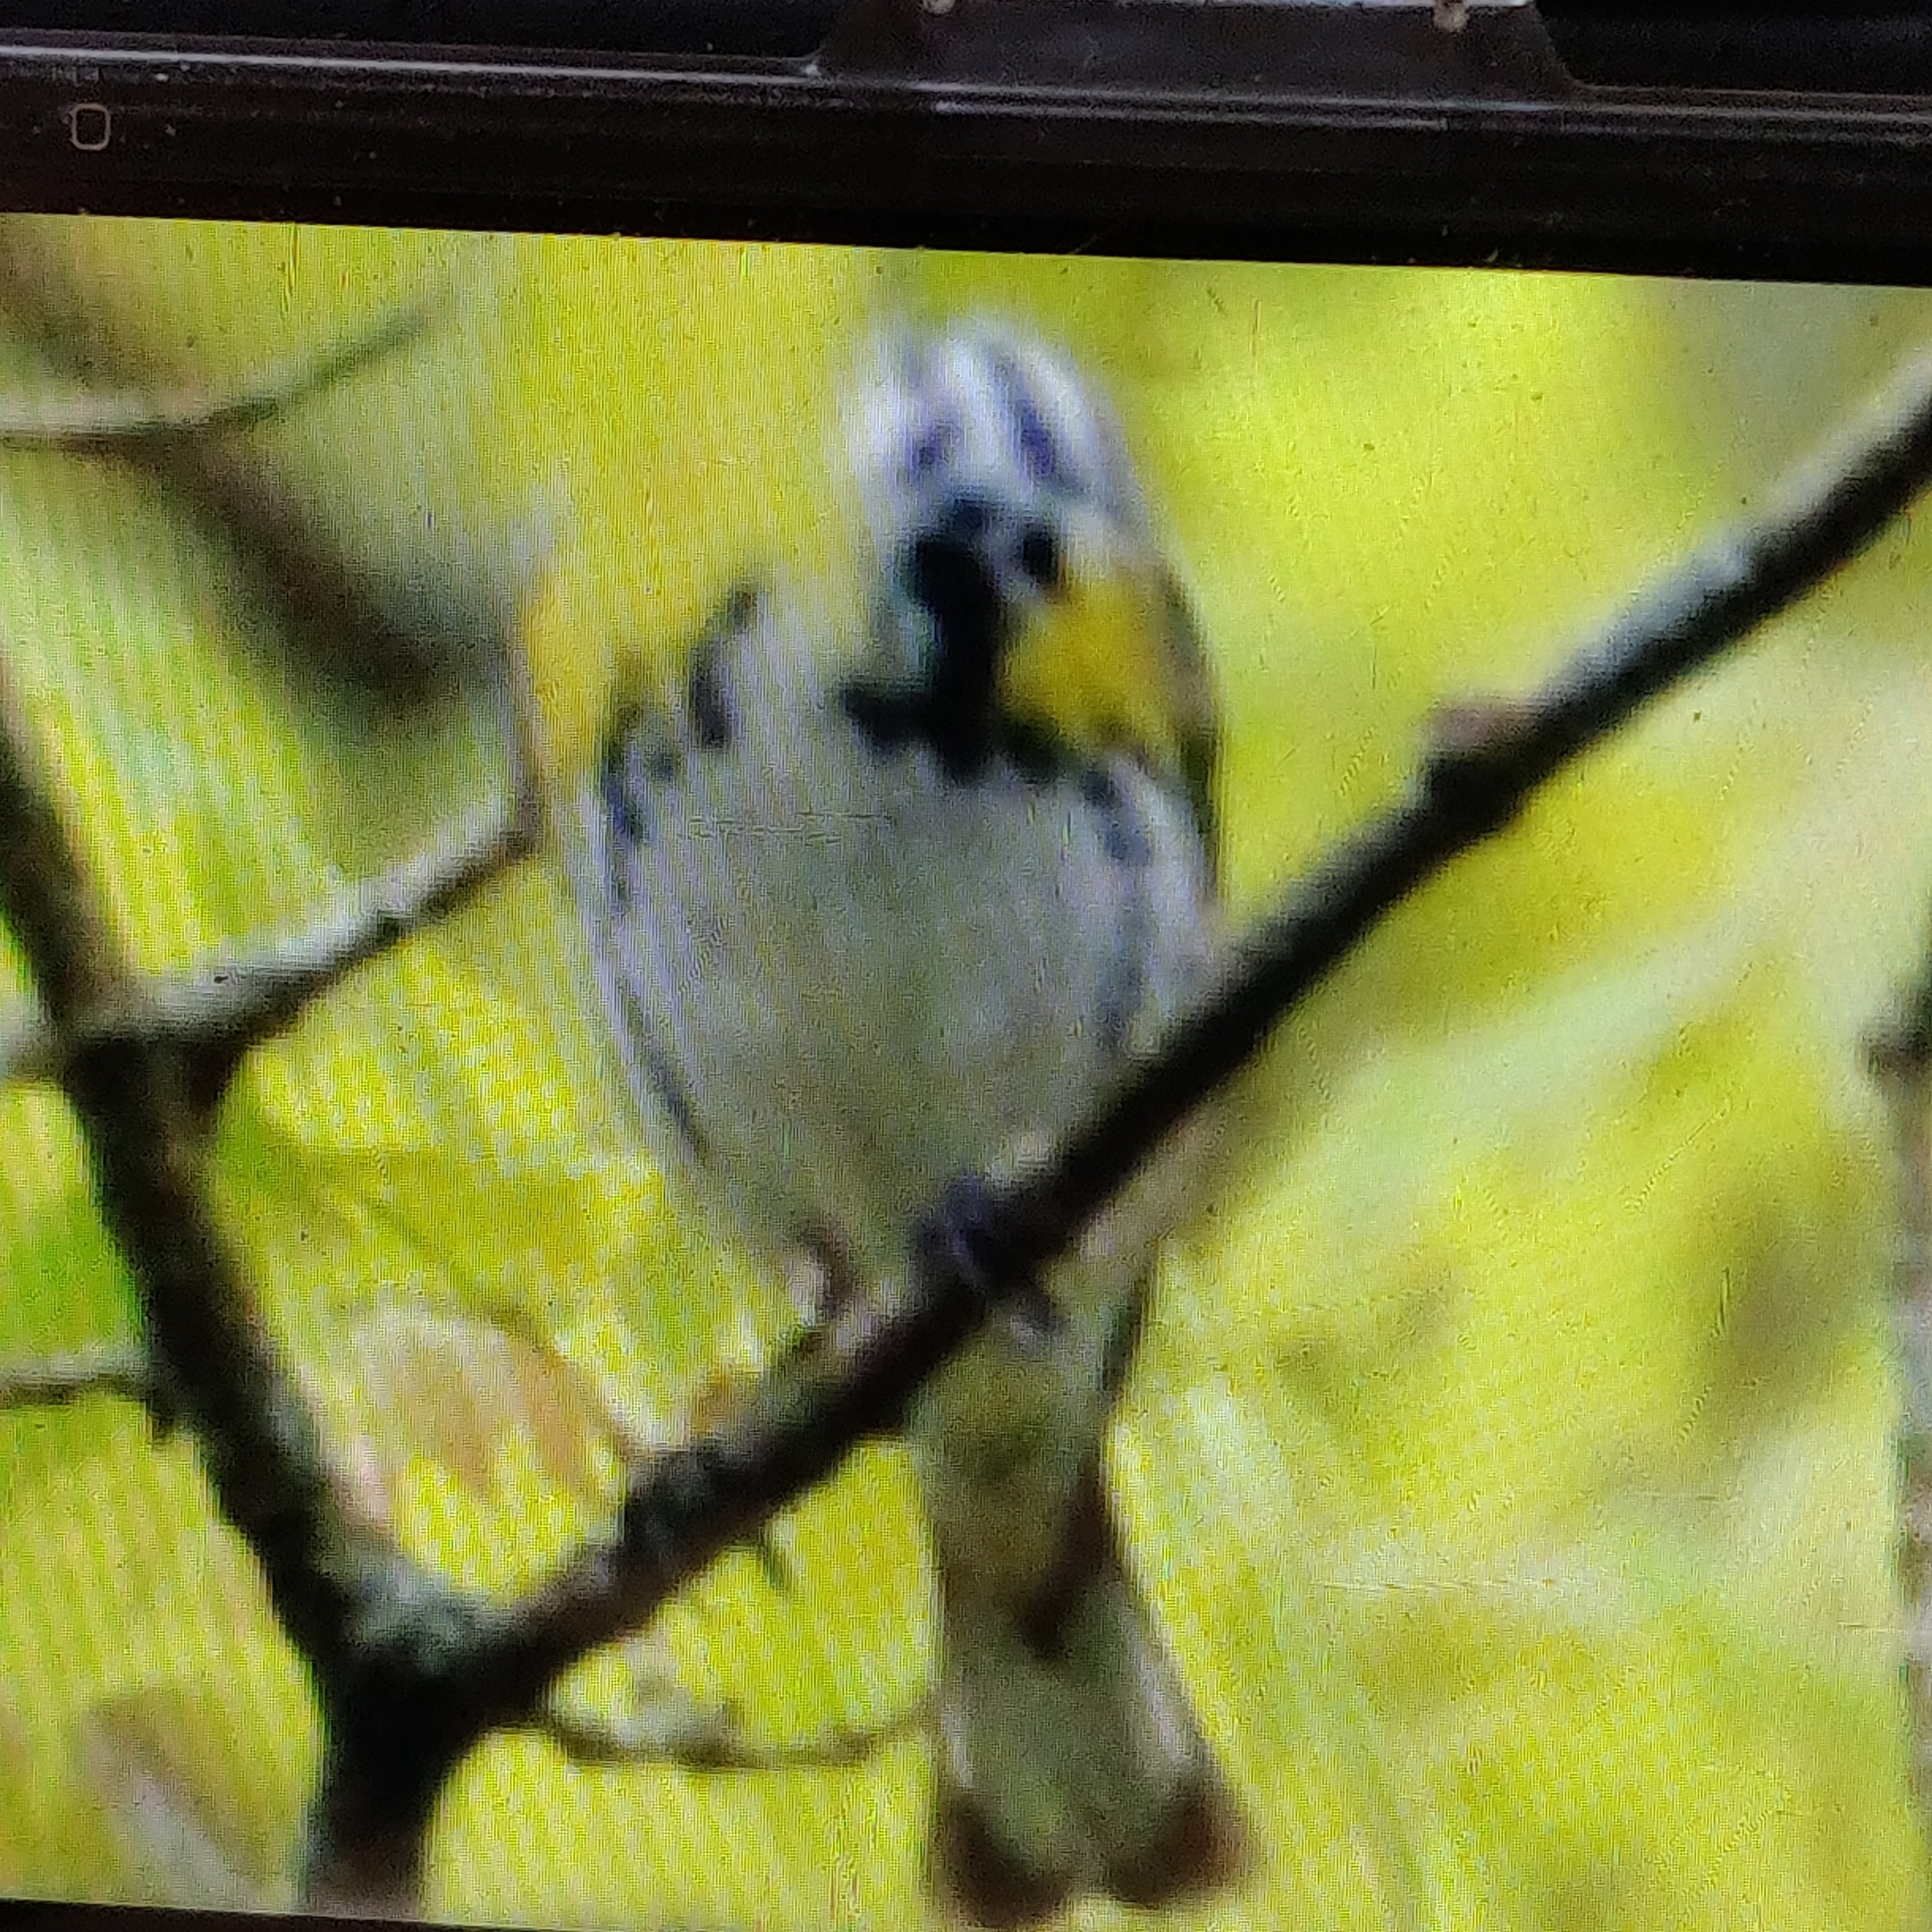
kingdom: Animalia
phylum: Chordata
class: Aves
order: Passeriformes
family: Parulidae
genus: Setophaga
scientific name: Setophaga coronata
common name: Myrtle warbler
